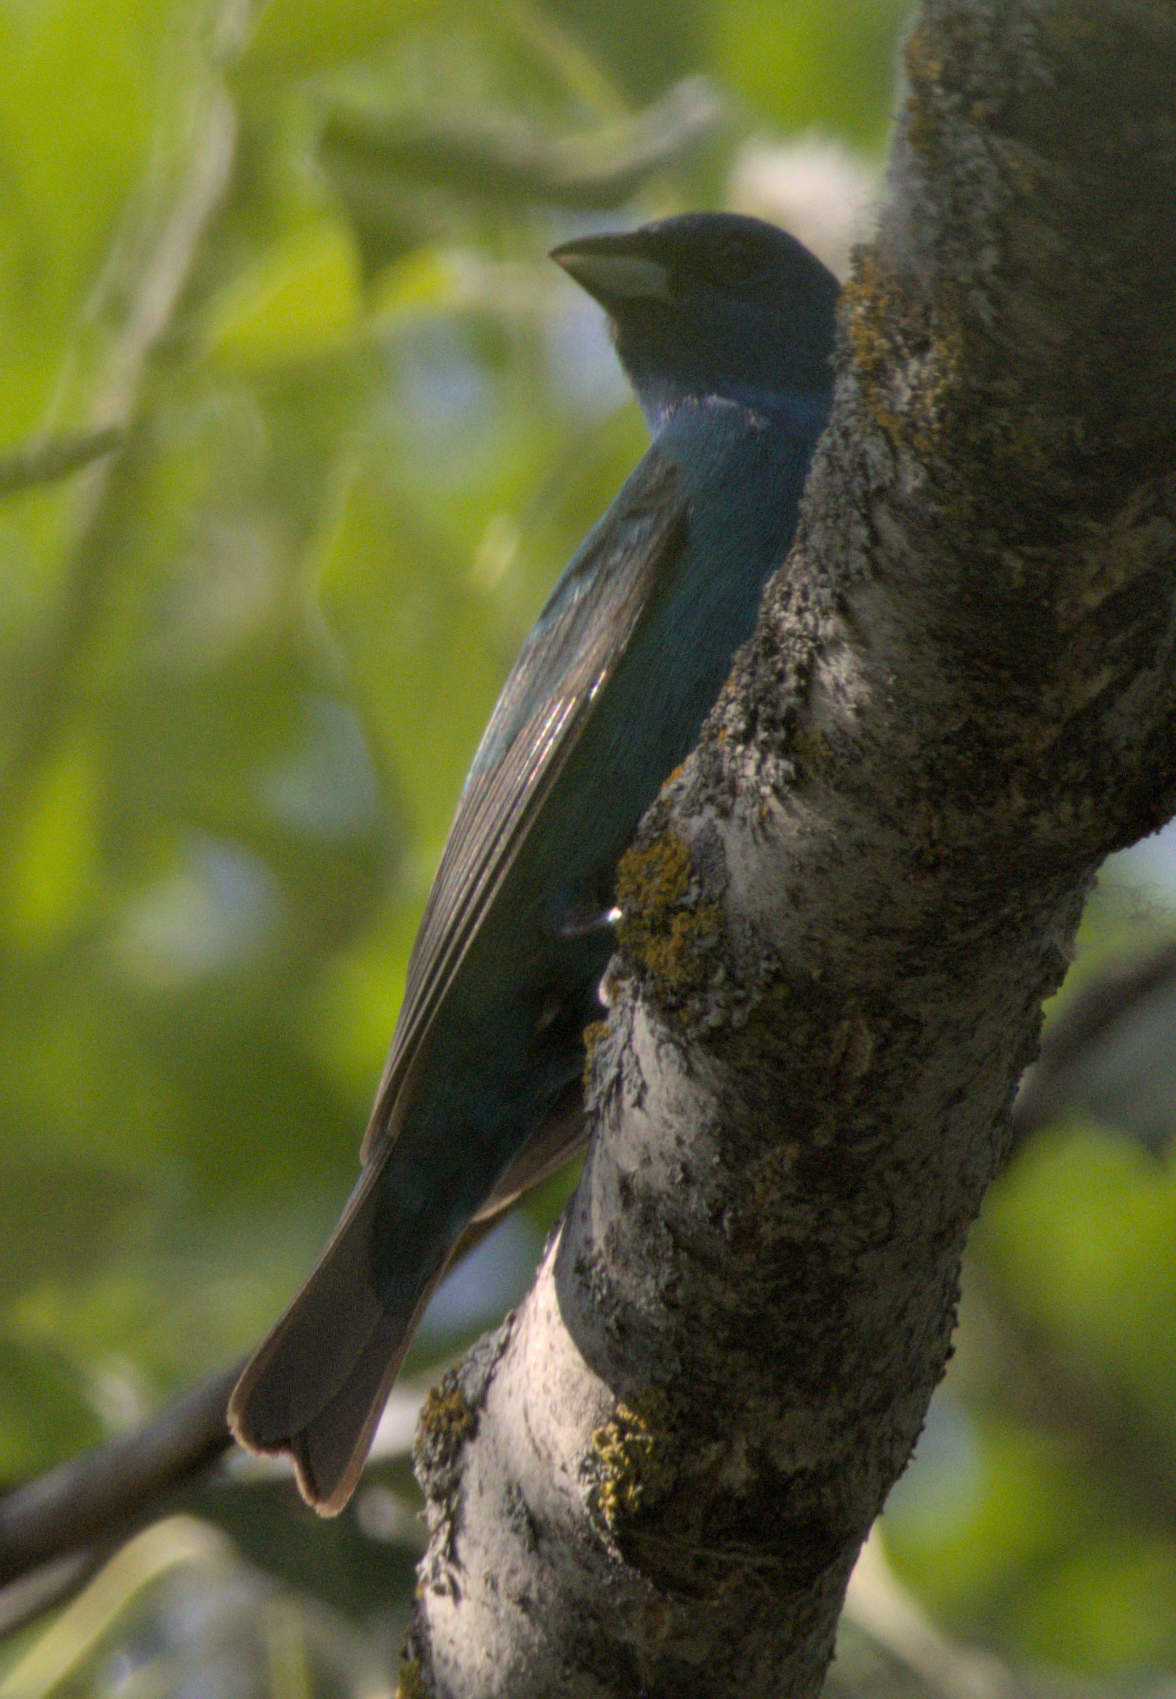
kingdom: Animalia
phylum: Chordata
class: Aves
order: Passeriformes
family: Cardinalidae
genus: Passerina
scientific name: Passerina cyanea
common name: Indigo bunting
